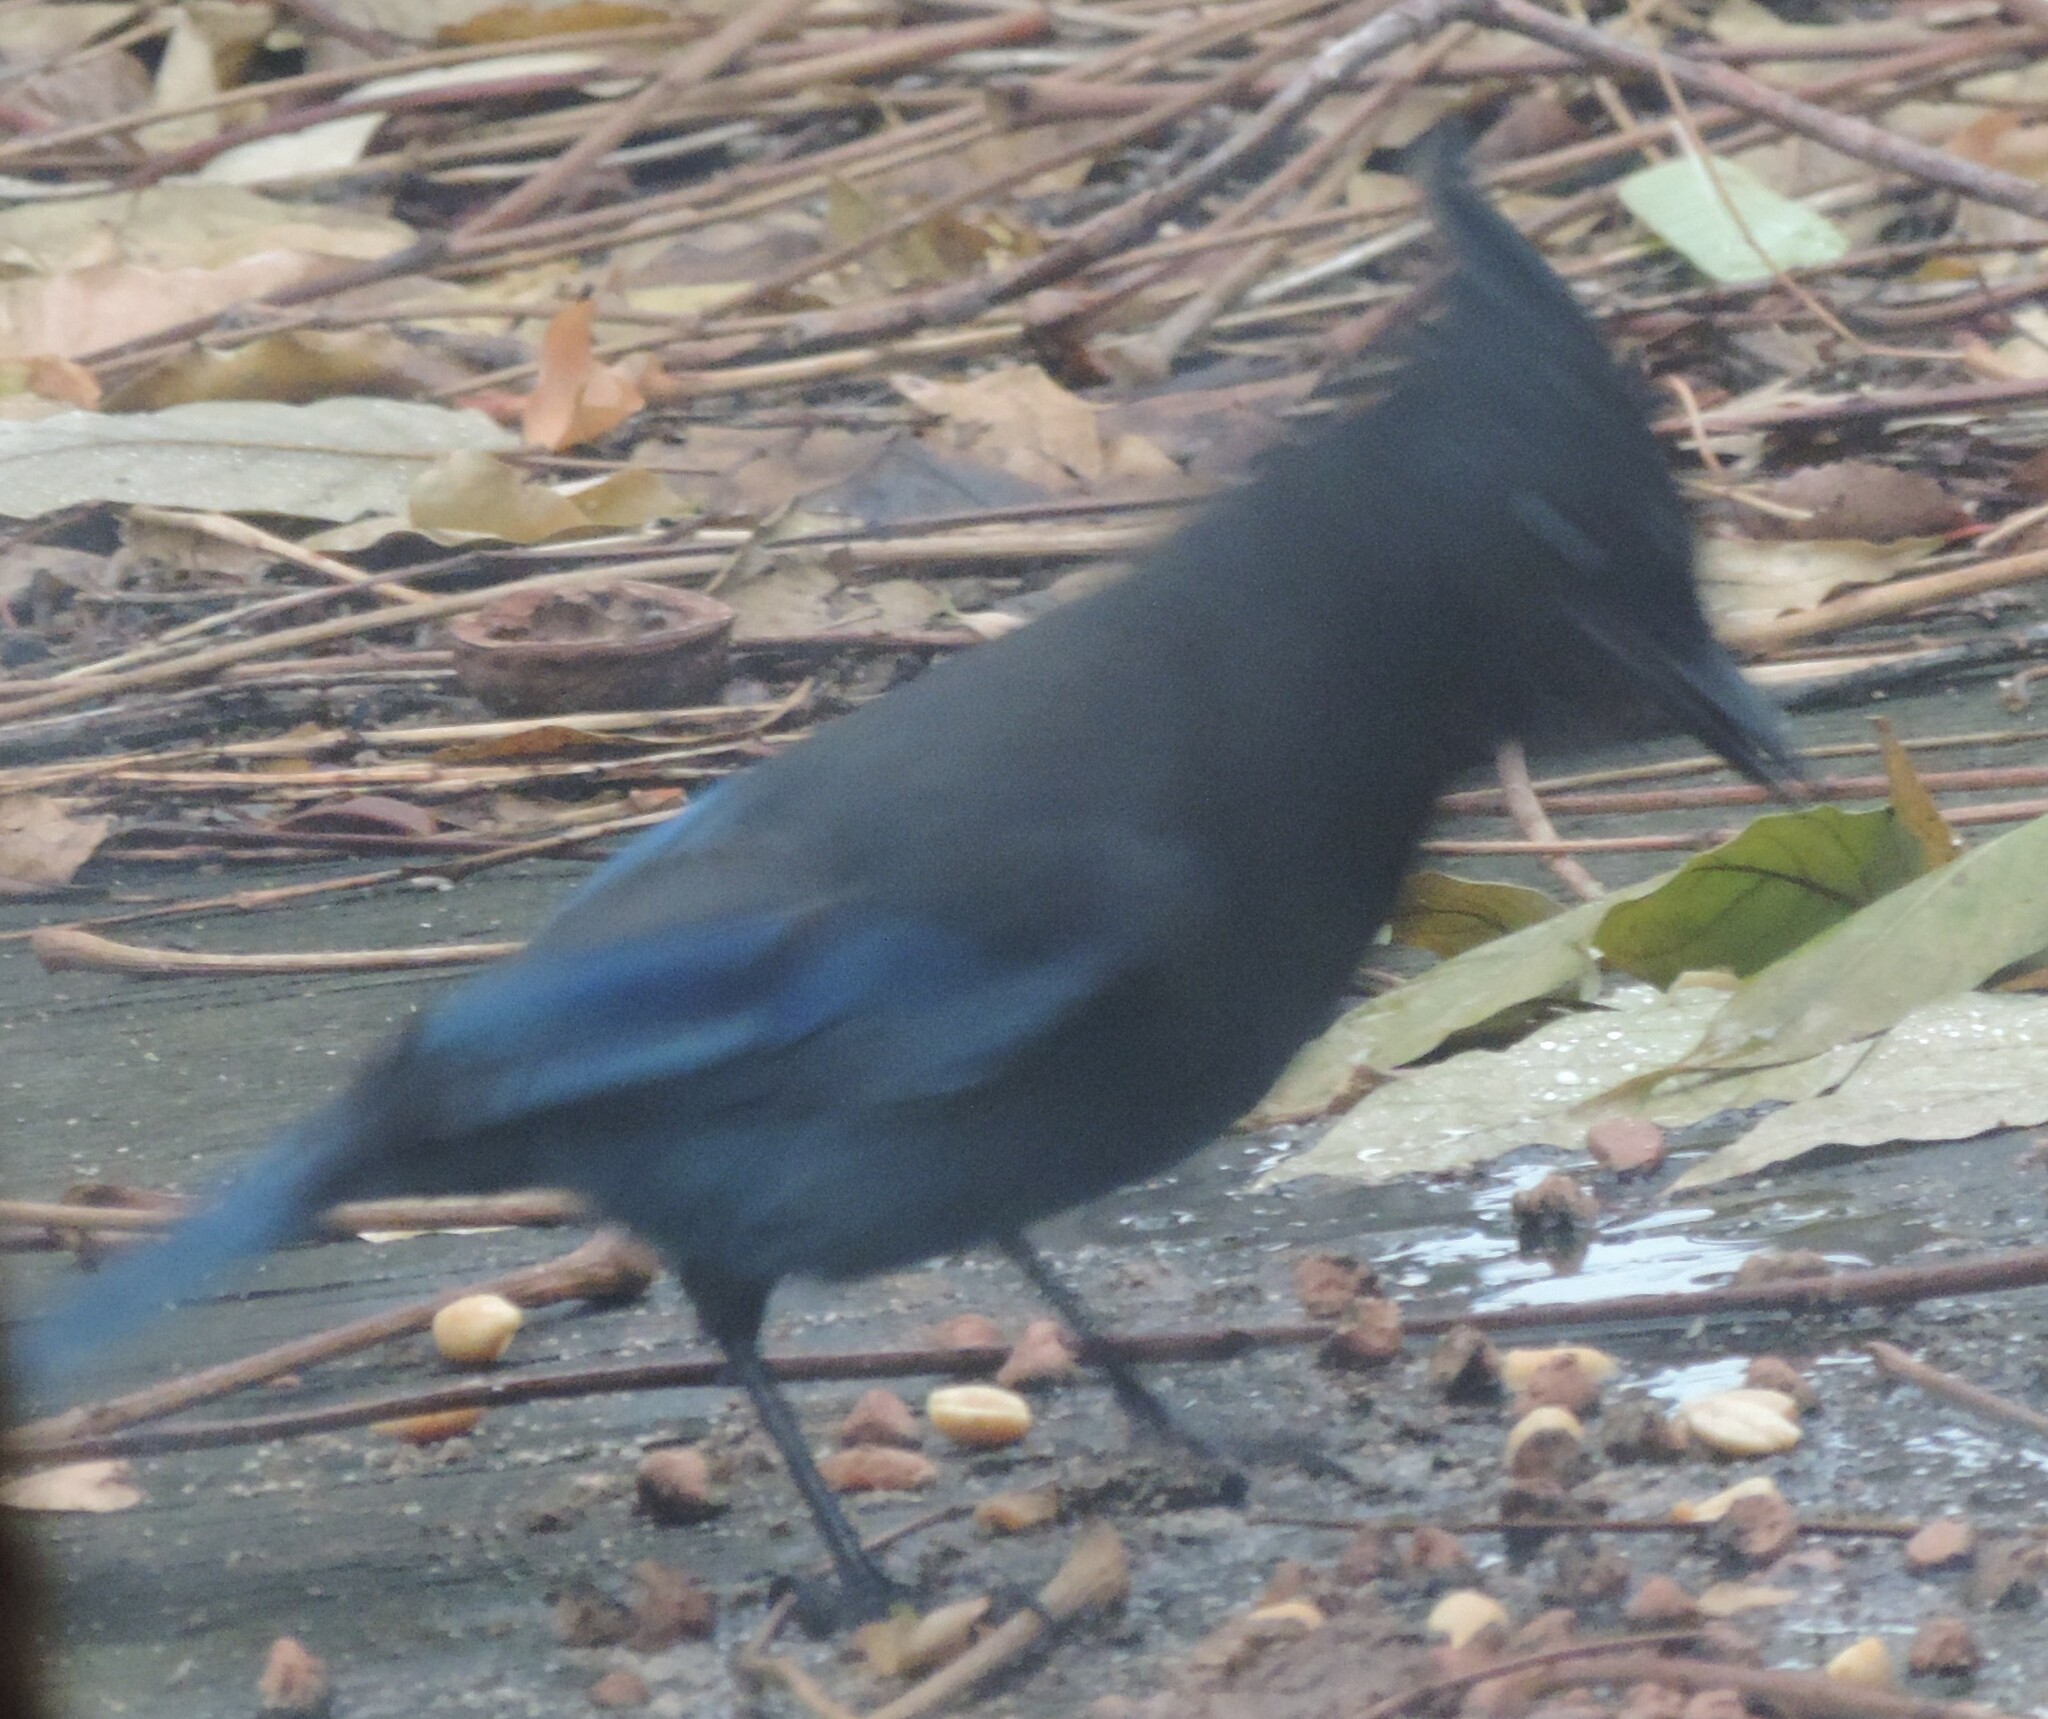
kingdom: Animalia
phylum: Chordata
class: Aves
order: Passeriformes
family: Corvidae
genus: Cyanocitta
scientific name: Cyanocitta stelleri
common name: Steller's jay
